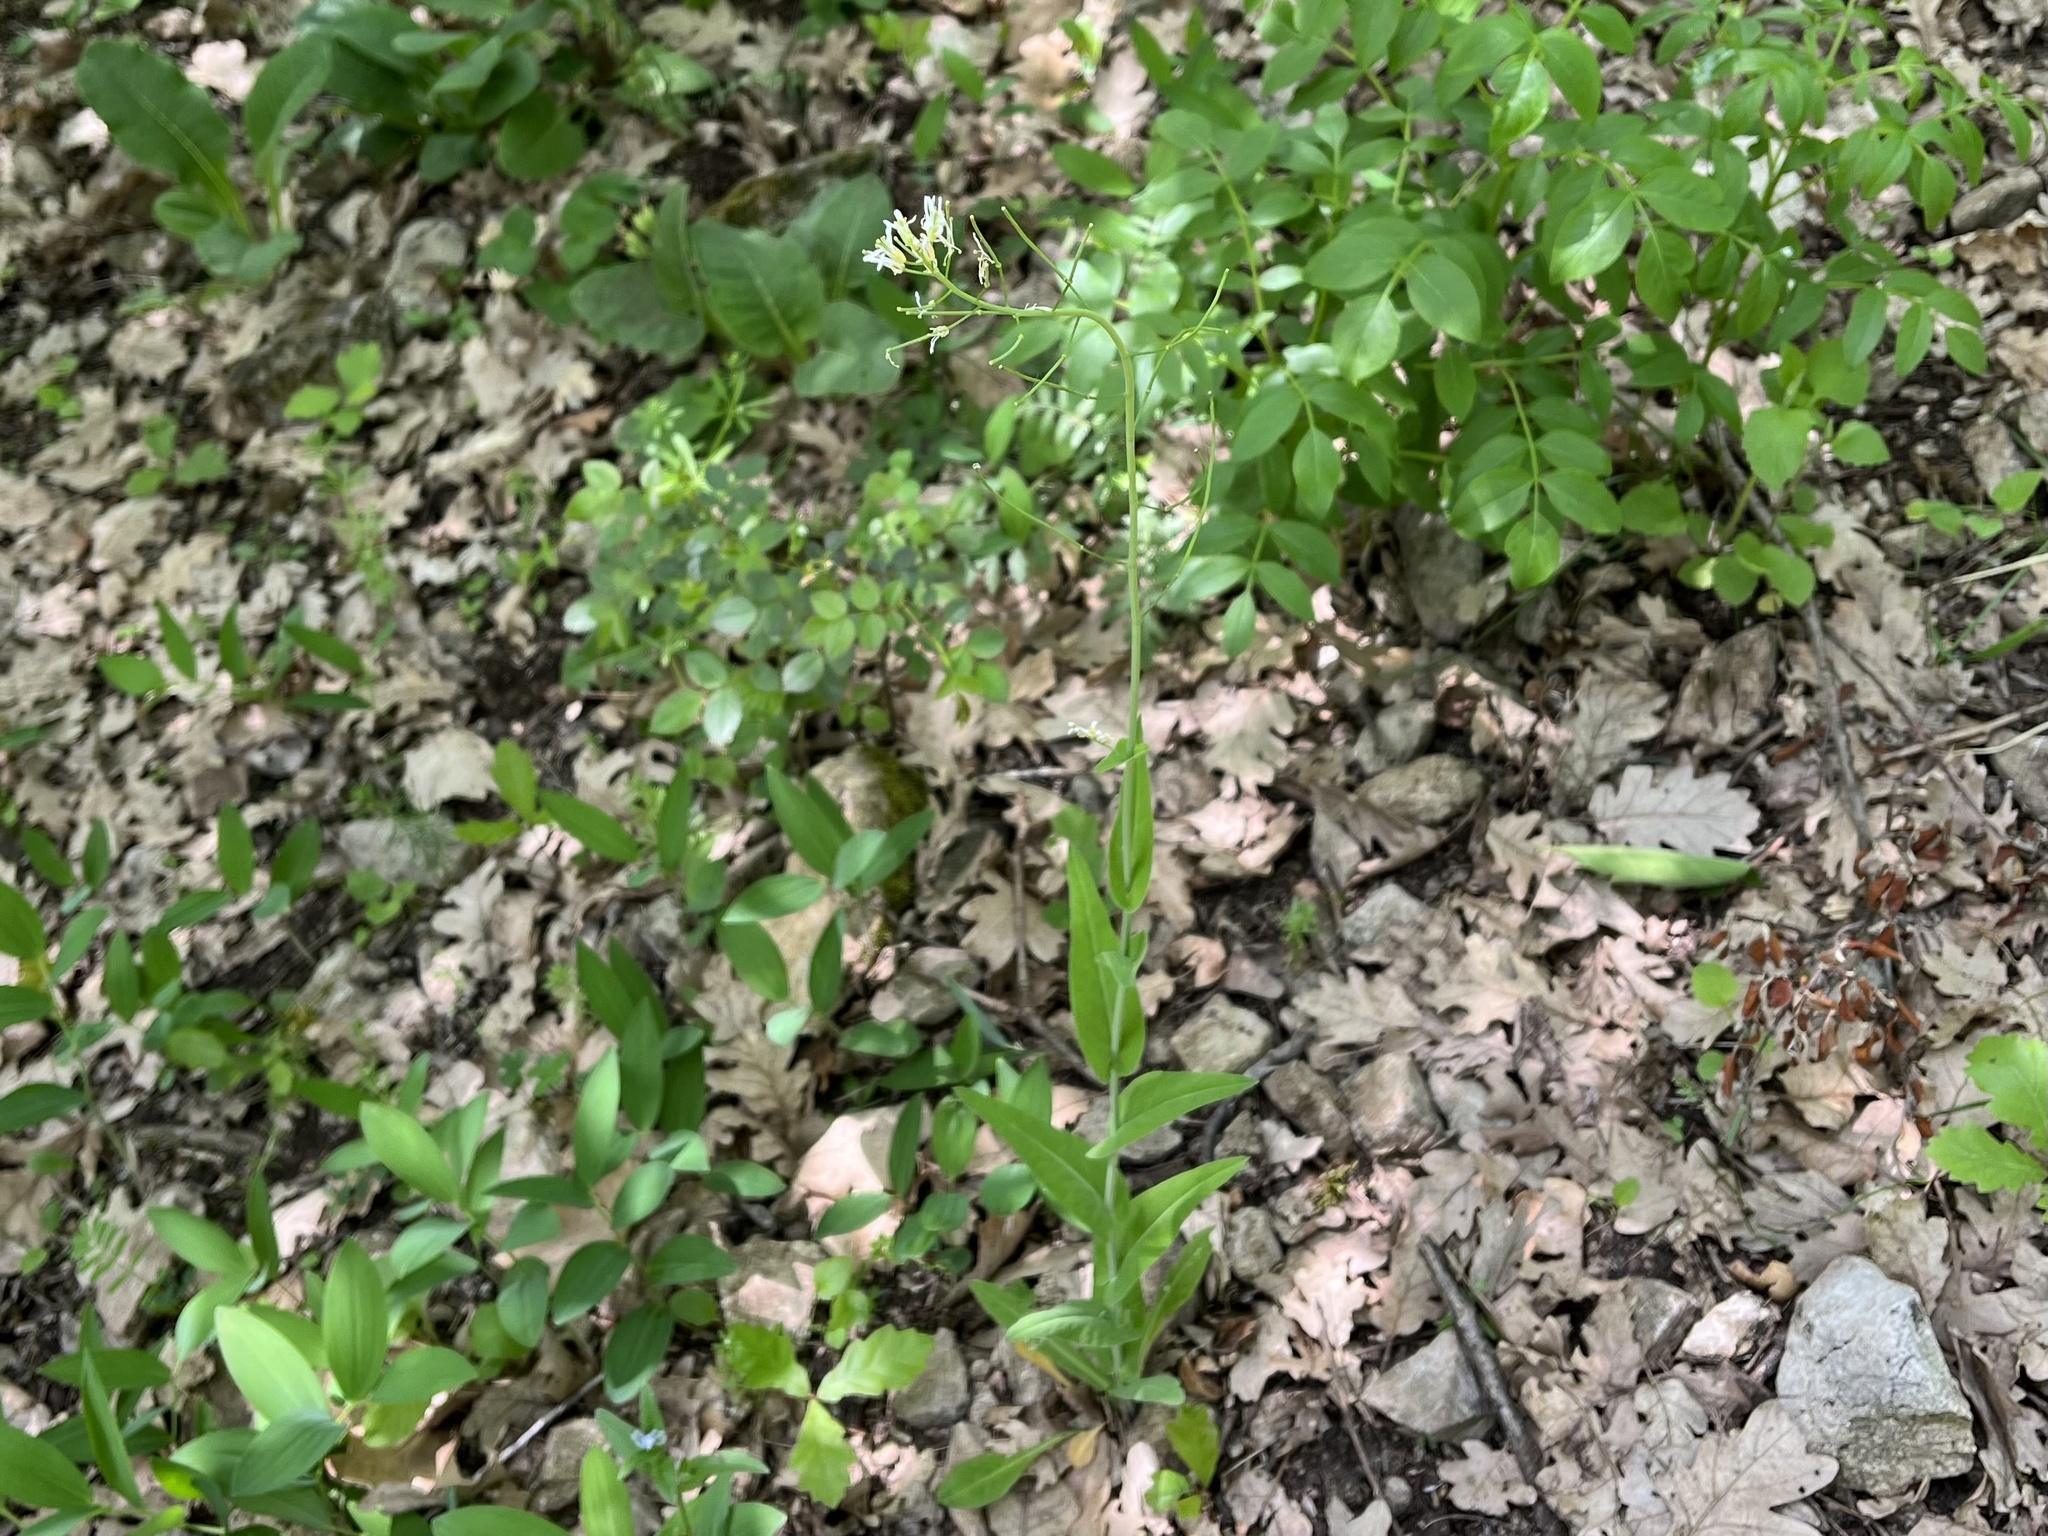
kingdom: Plantae
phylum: Tracheophyta
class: Magnoliopsida
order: Brassicales
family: Brassicaceae
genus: Fourraea
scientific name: Fourraea alpina
